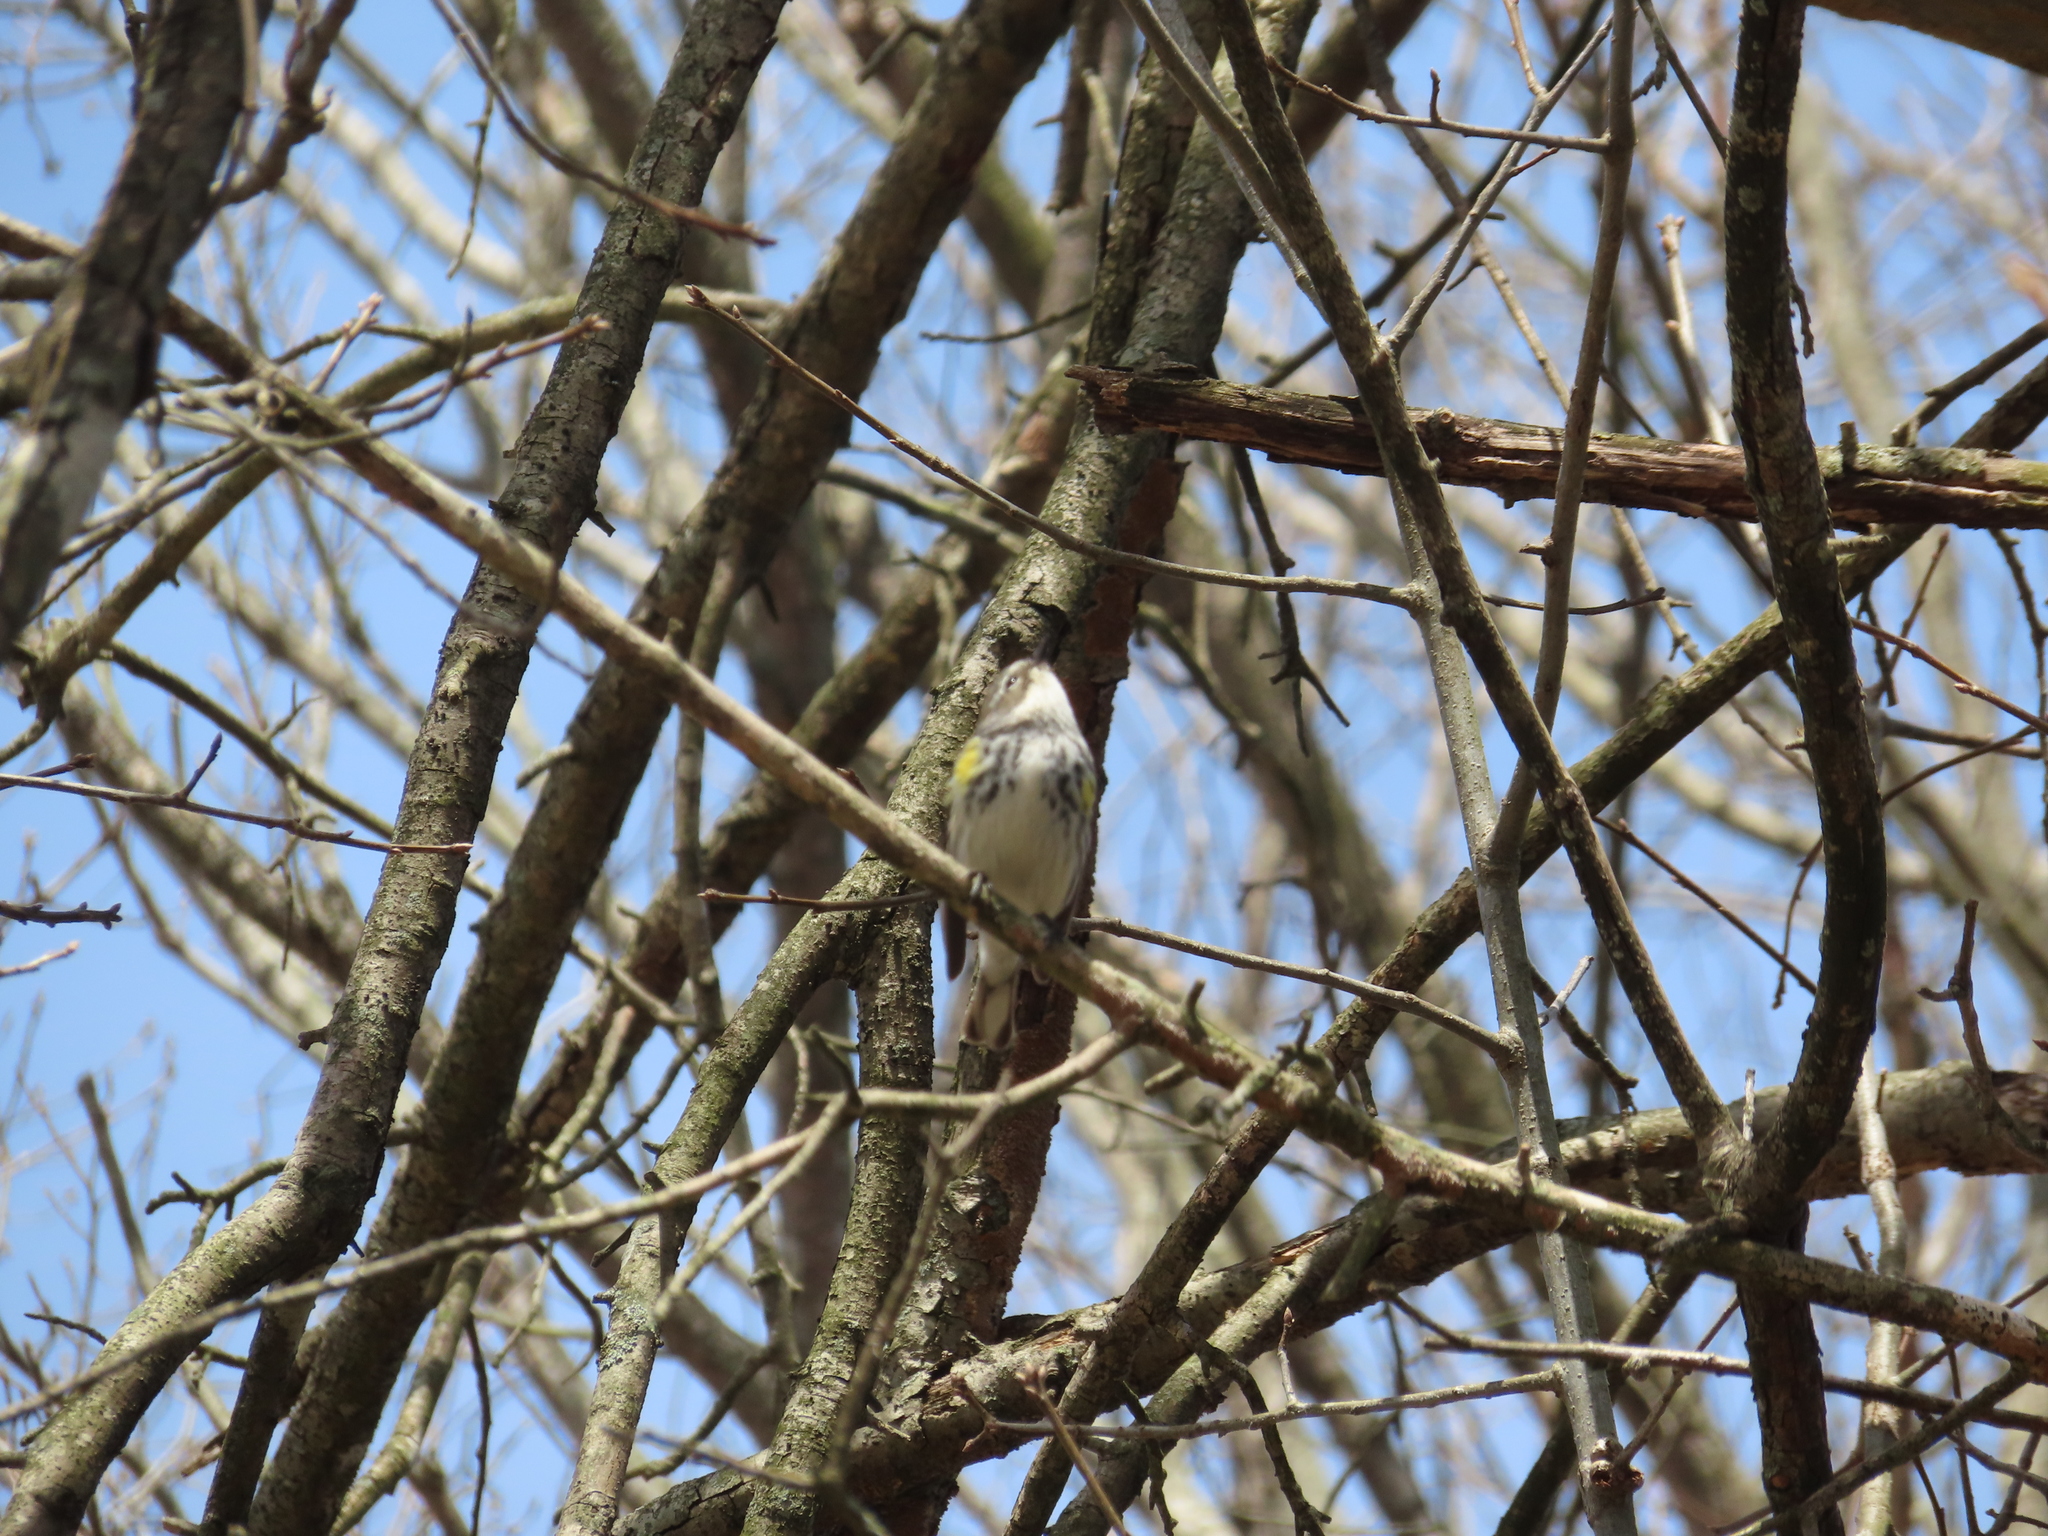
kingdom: Animalia
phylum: Chordata
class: Aves
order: Passeriformes
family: Parulidae
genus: Setophaga
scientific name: Setophaga coronata
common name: Myrtle warbler
